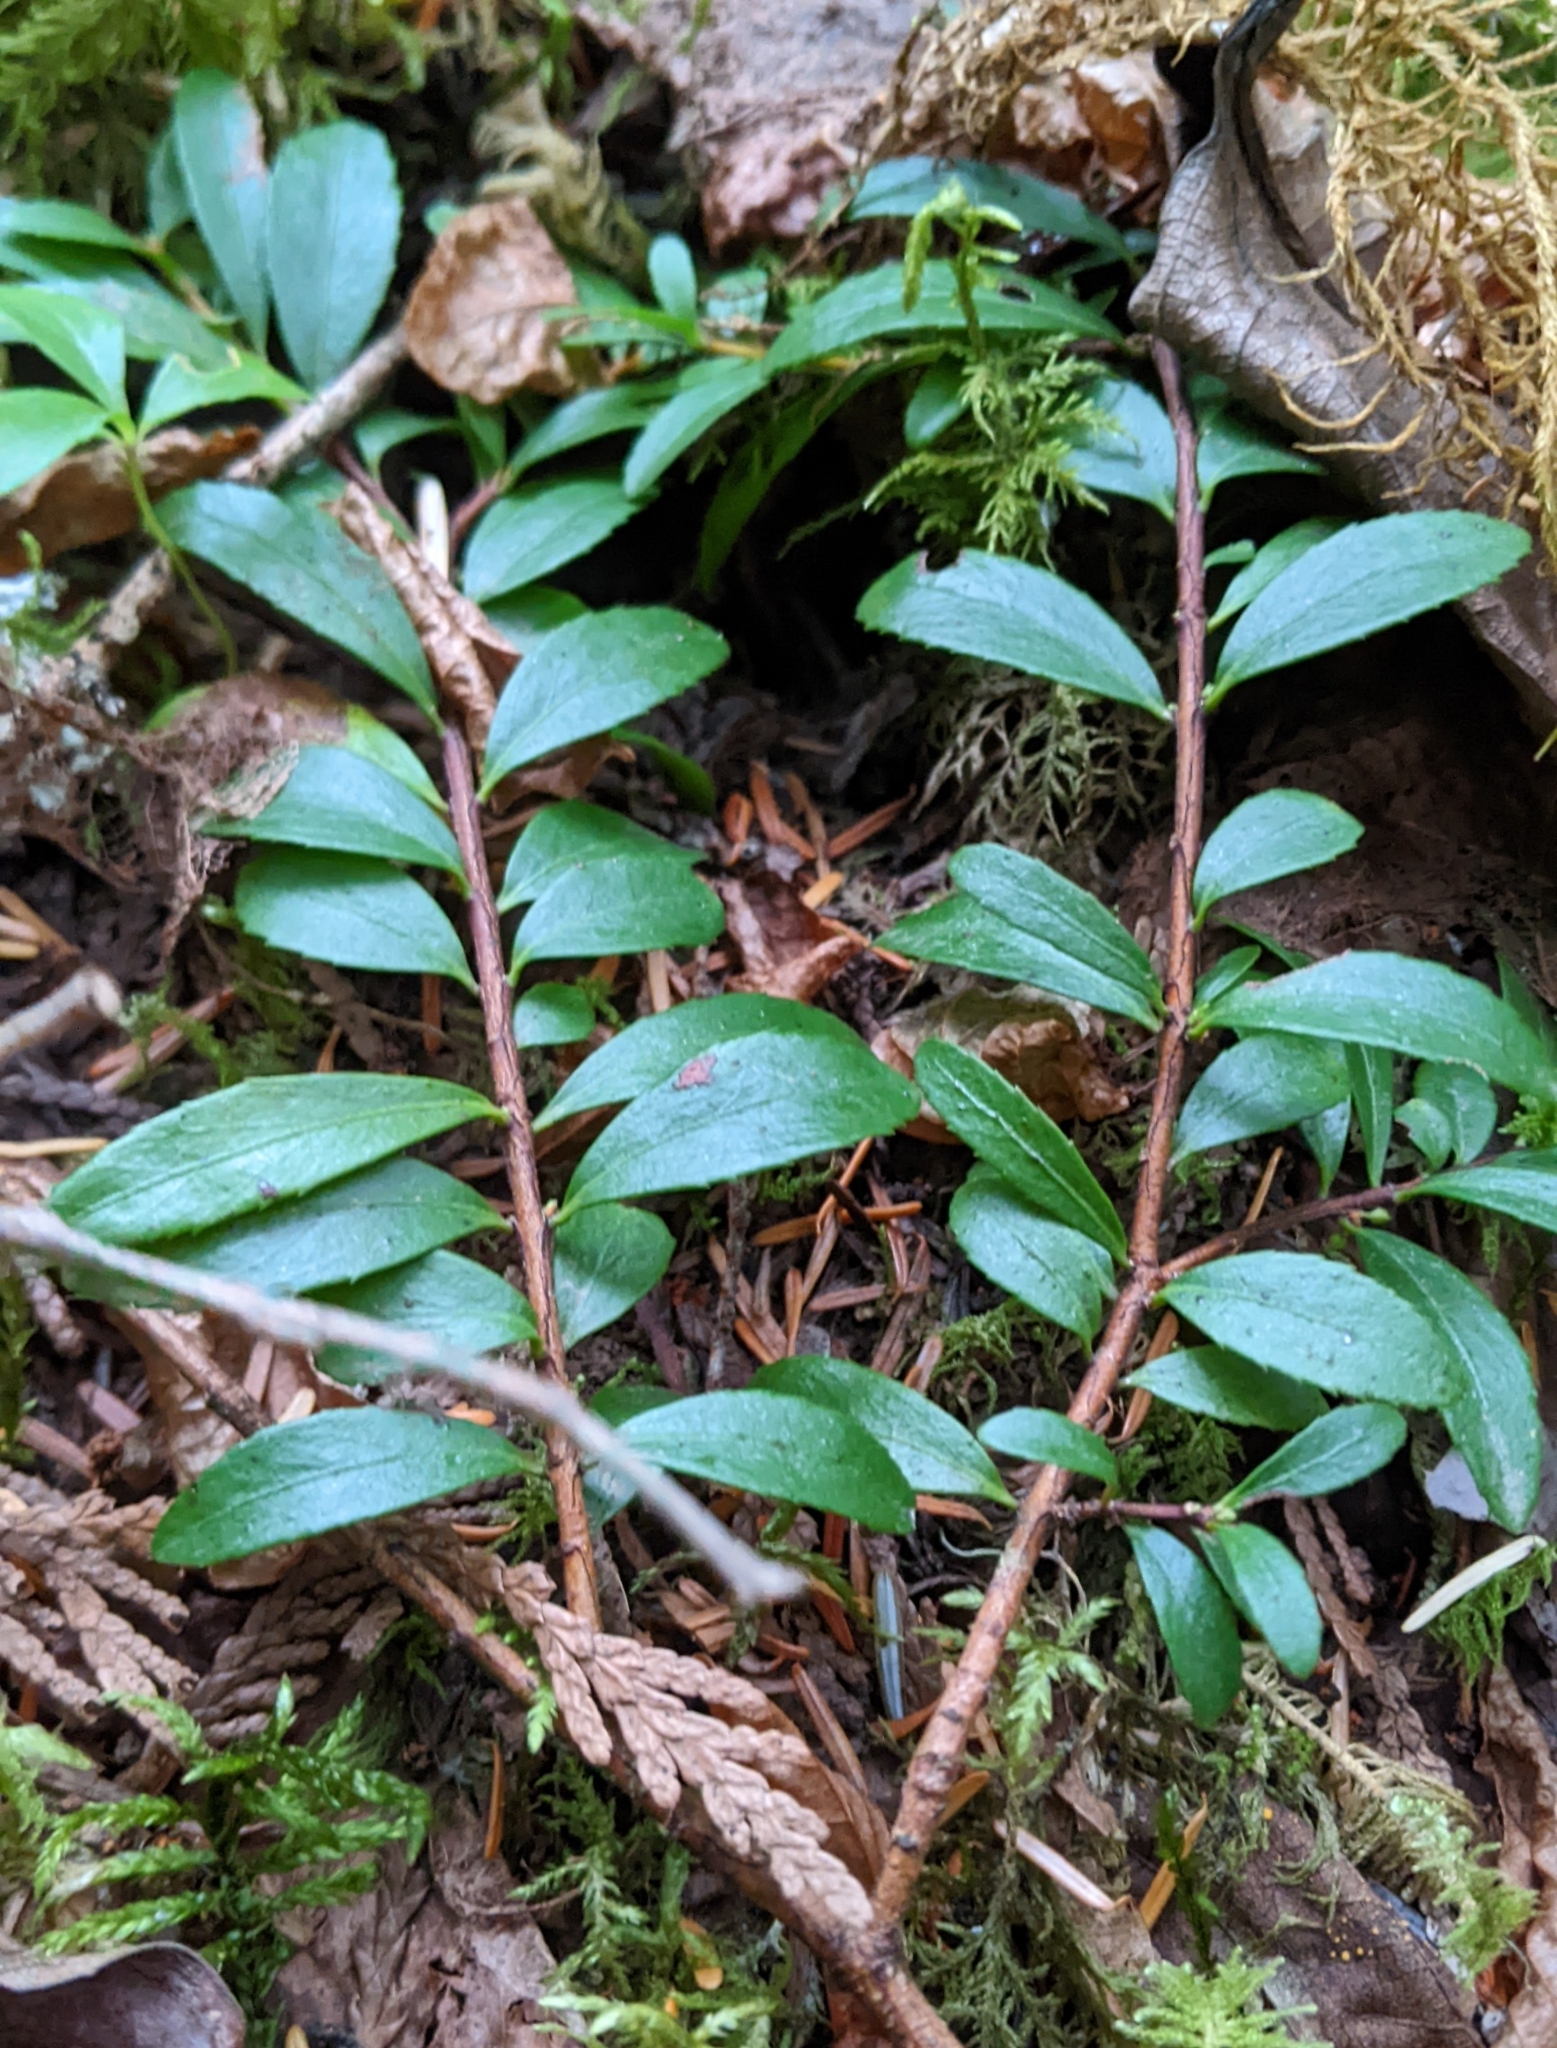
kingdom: Plantae
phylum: Tracheophyta
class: Magnoliopsida
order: Celastrales
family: Celastraceae
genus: Paxistima
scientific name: Paxistima myrsinites
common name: Mountain-lover
